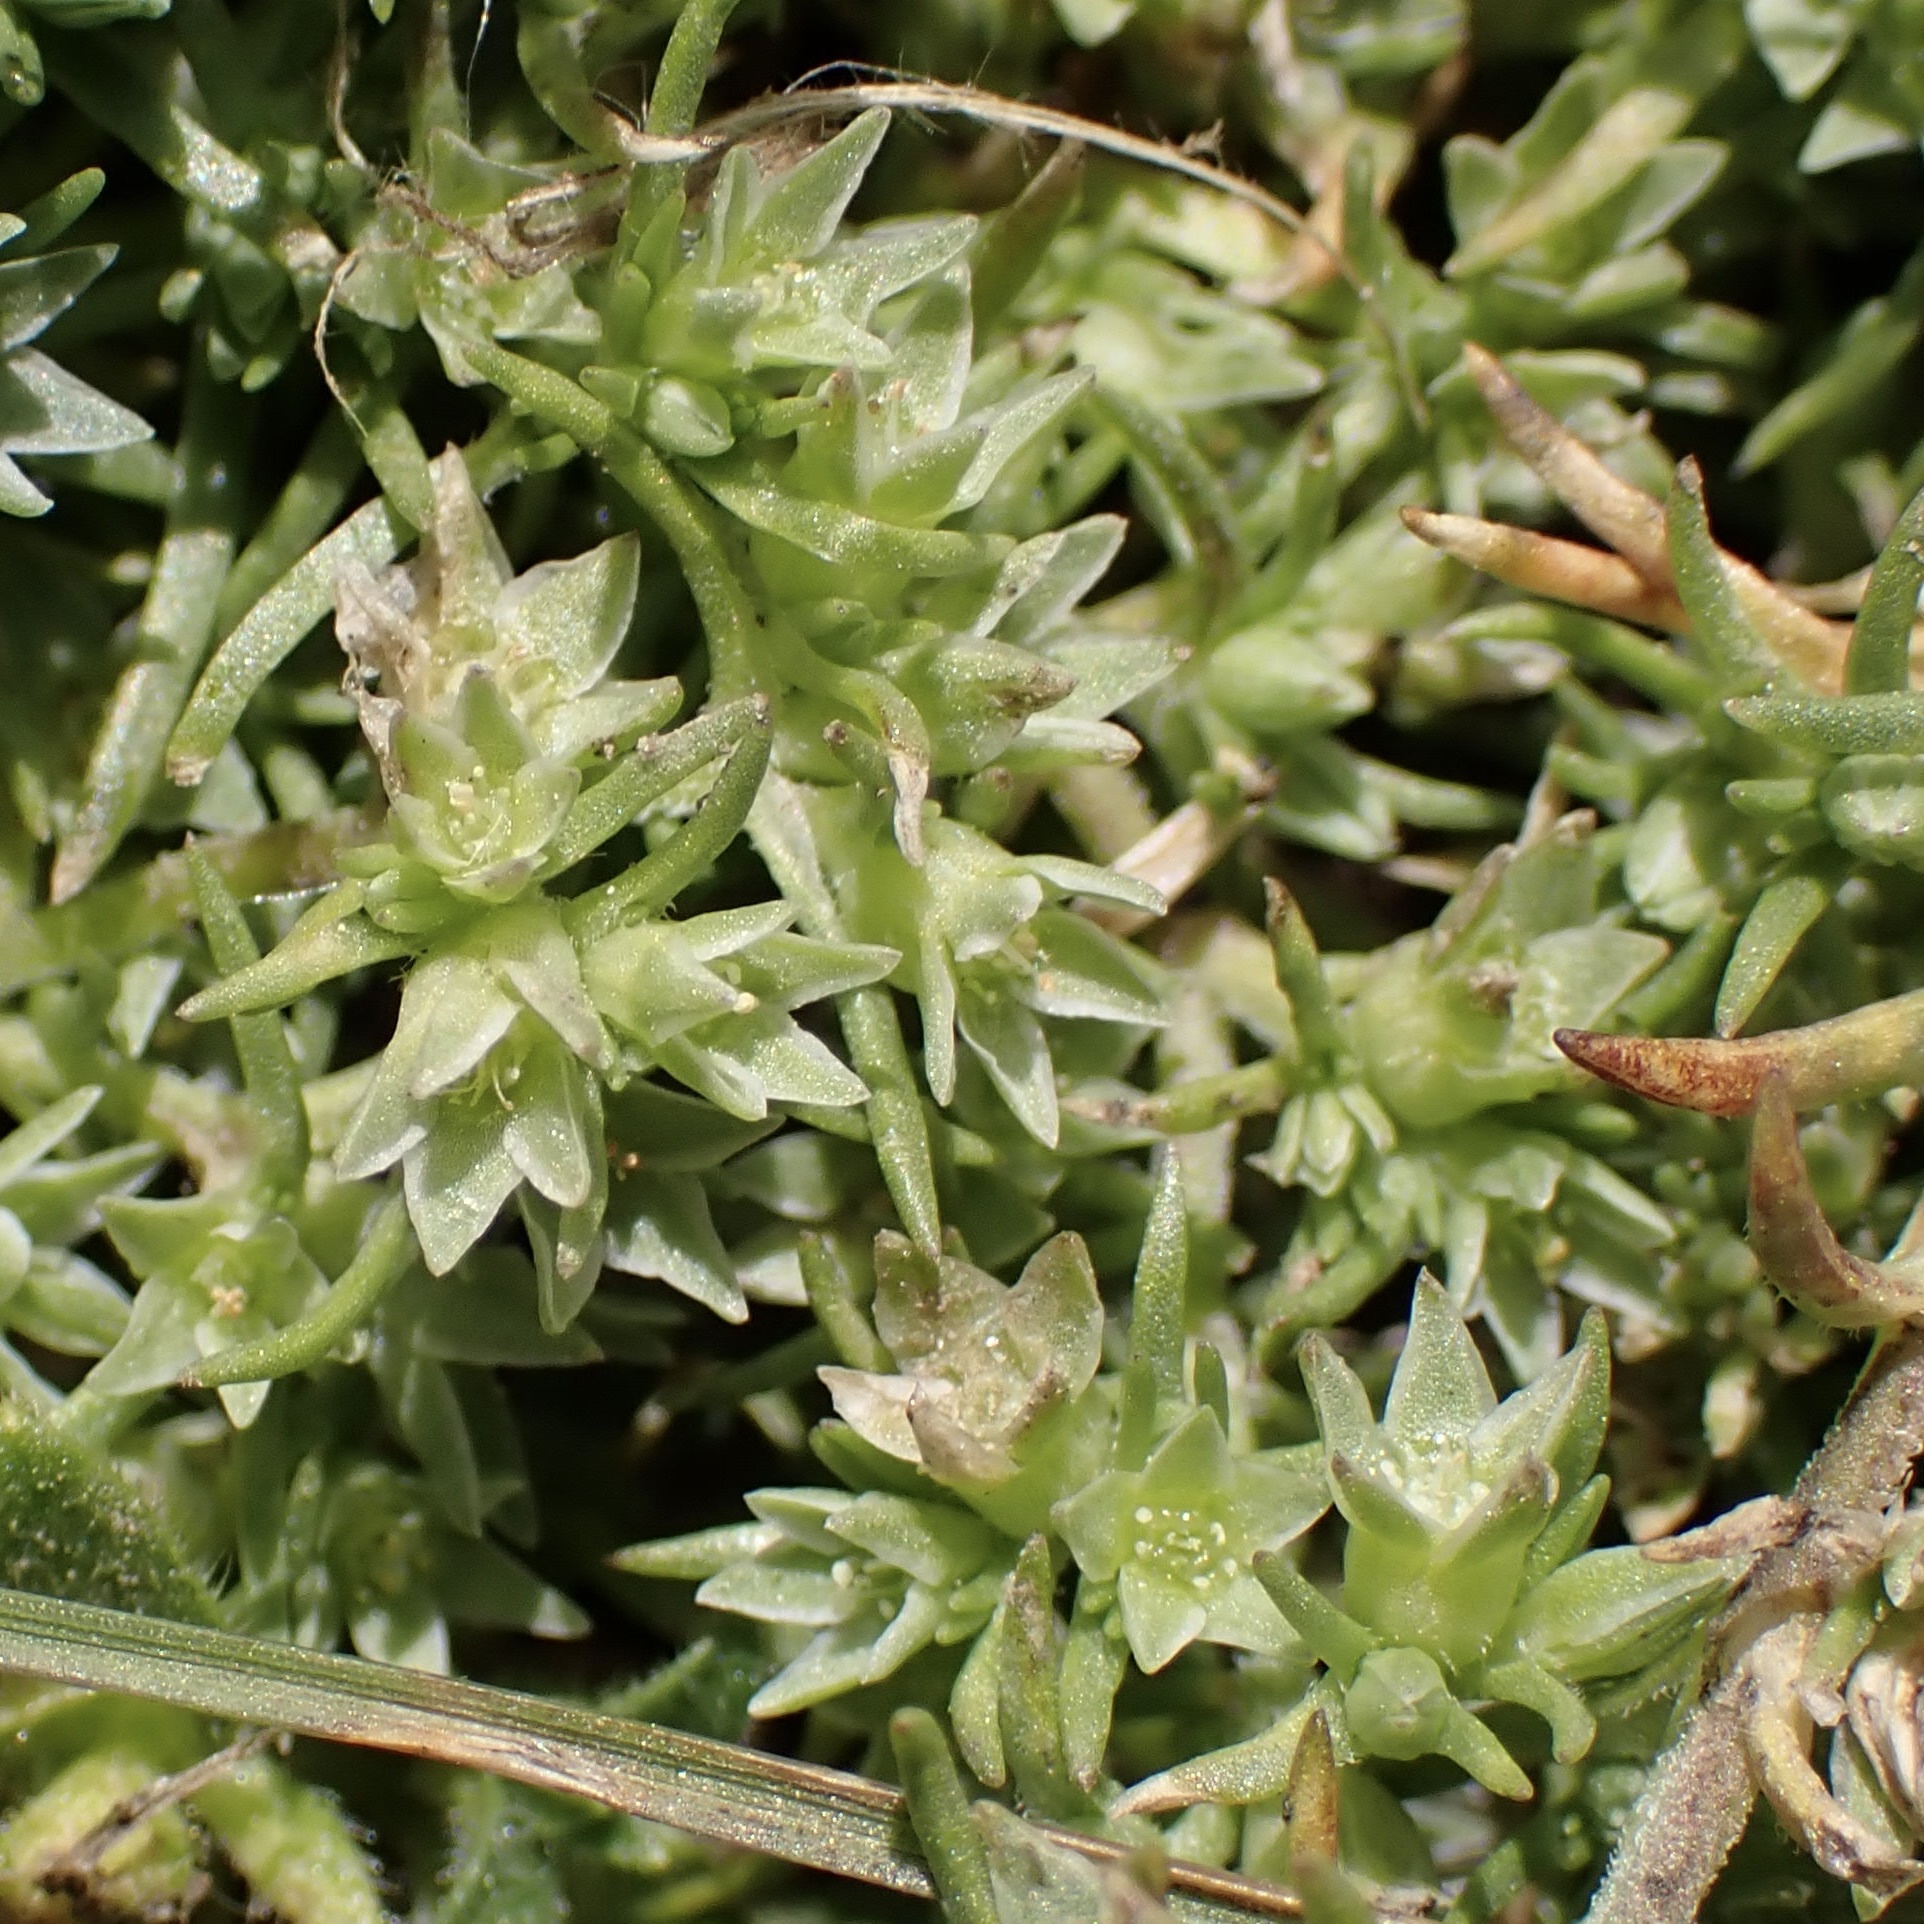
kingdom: Plantae
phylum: Tracheophyta
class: Magnoliopsida
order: Caryophyllales
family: Caryophyllaceae
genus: Scleranthus
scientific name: Scleranthus annuus
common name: Annual knawel
